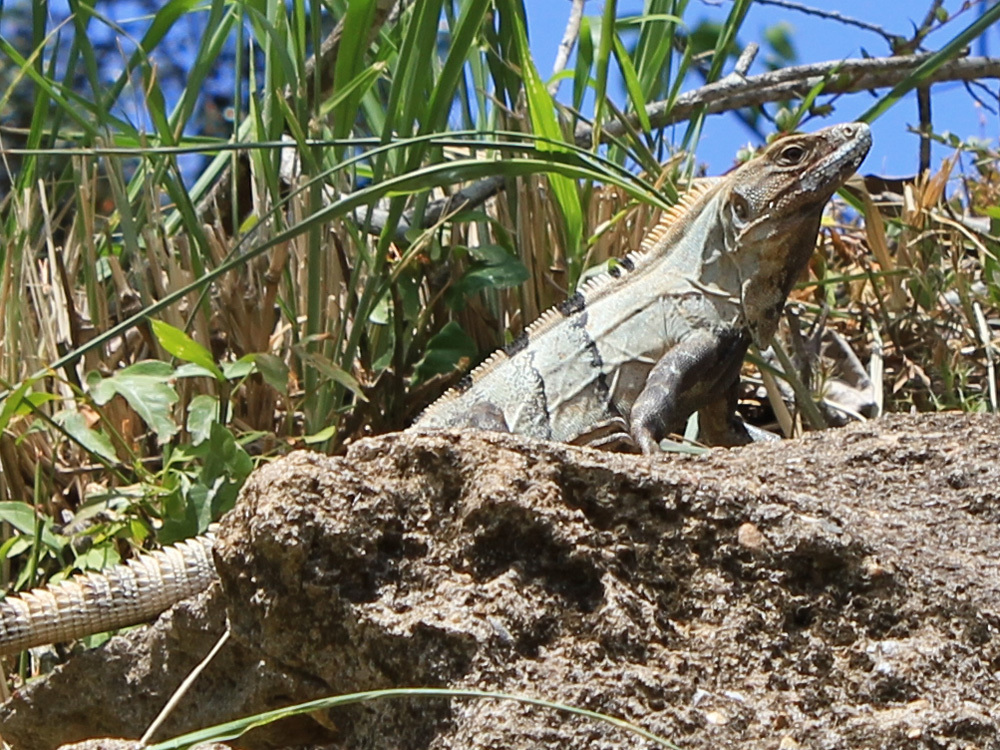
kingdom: Animalia
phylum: Chordata
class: Squamata
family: Iguanidae
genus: Ctenosaura
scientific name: Ctenosaura similis
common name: Black spiny-tailed iguana
